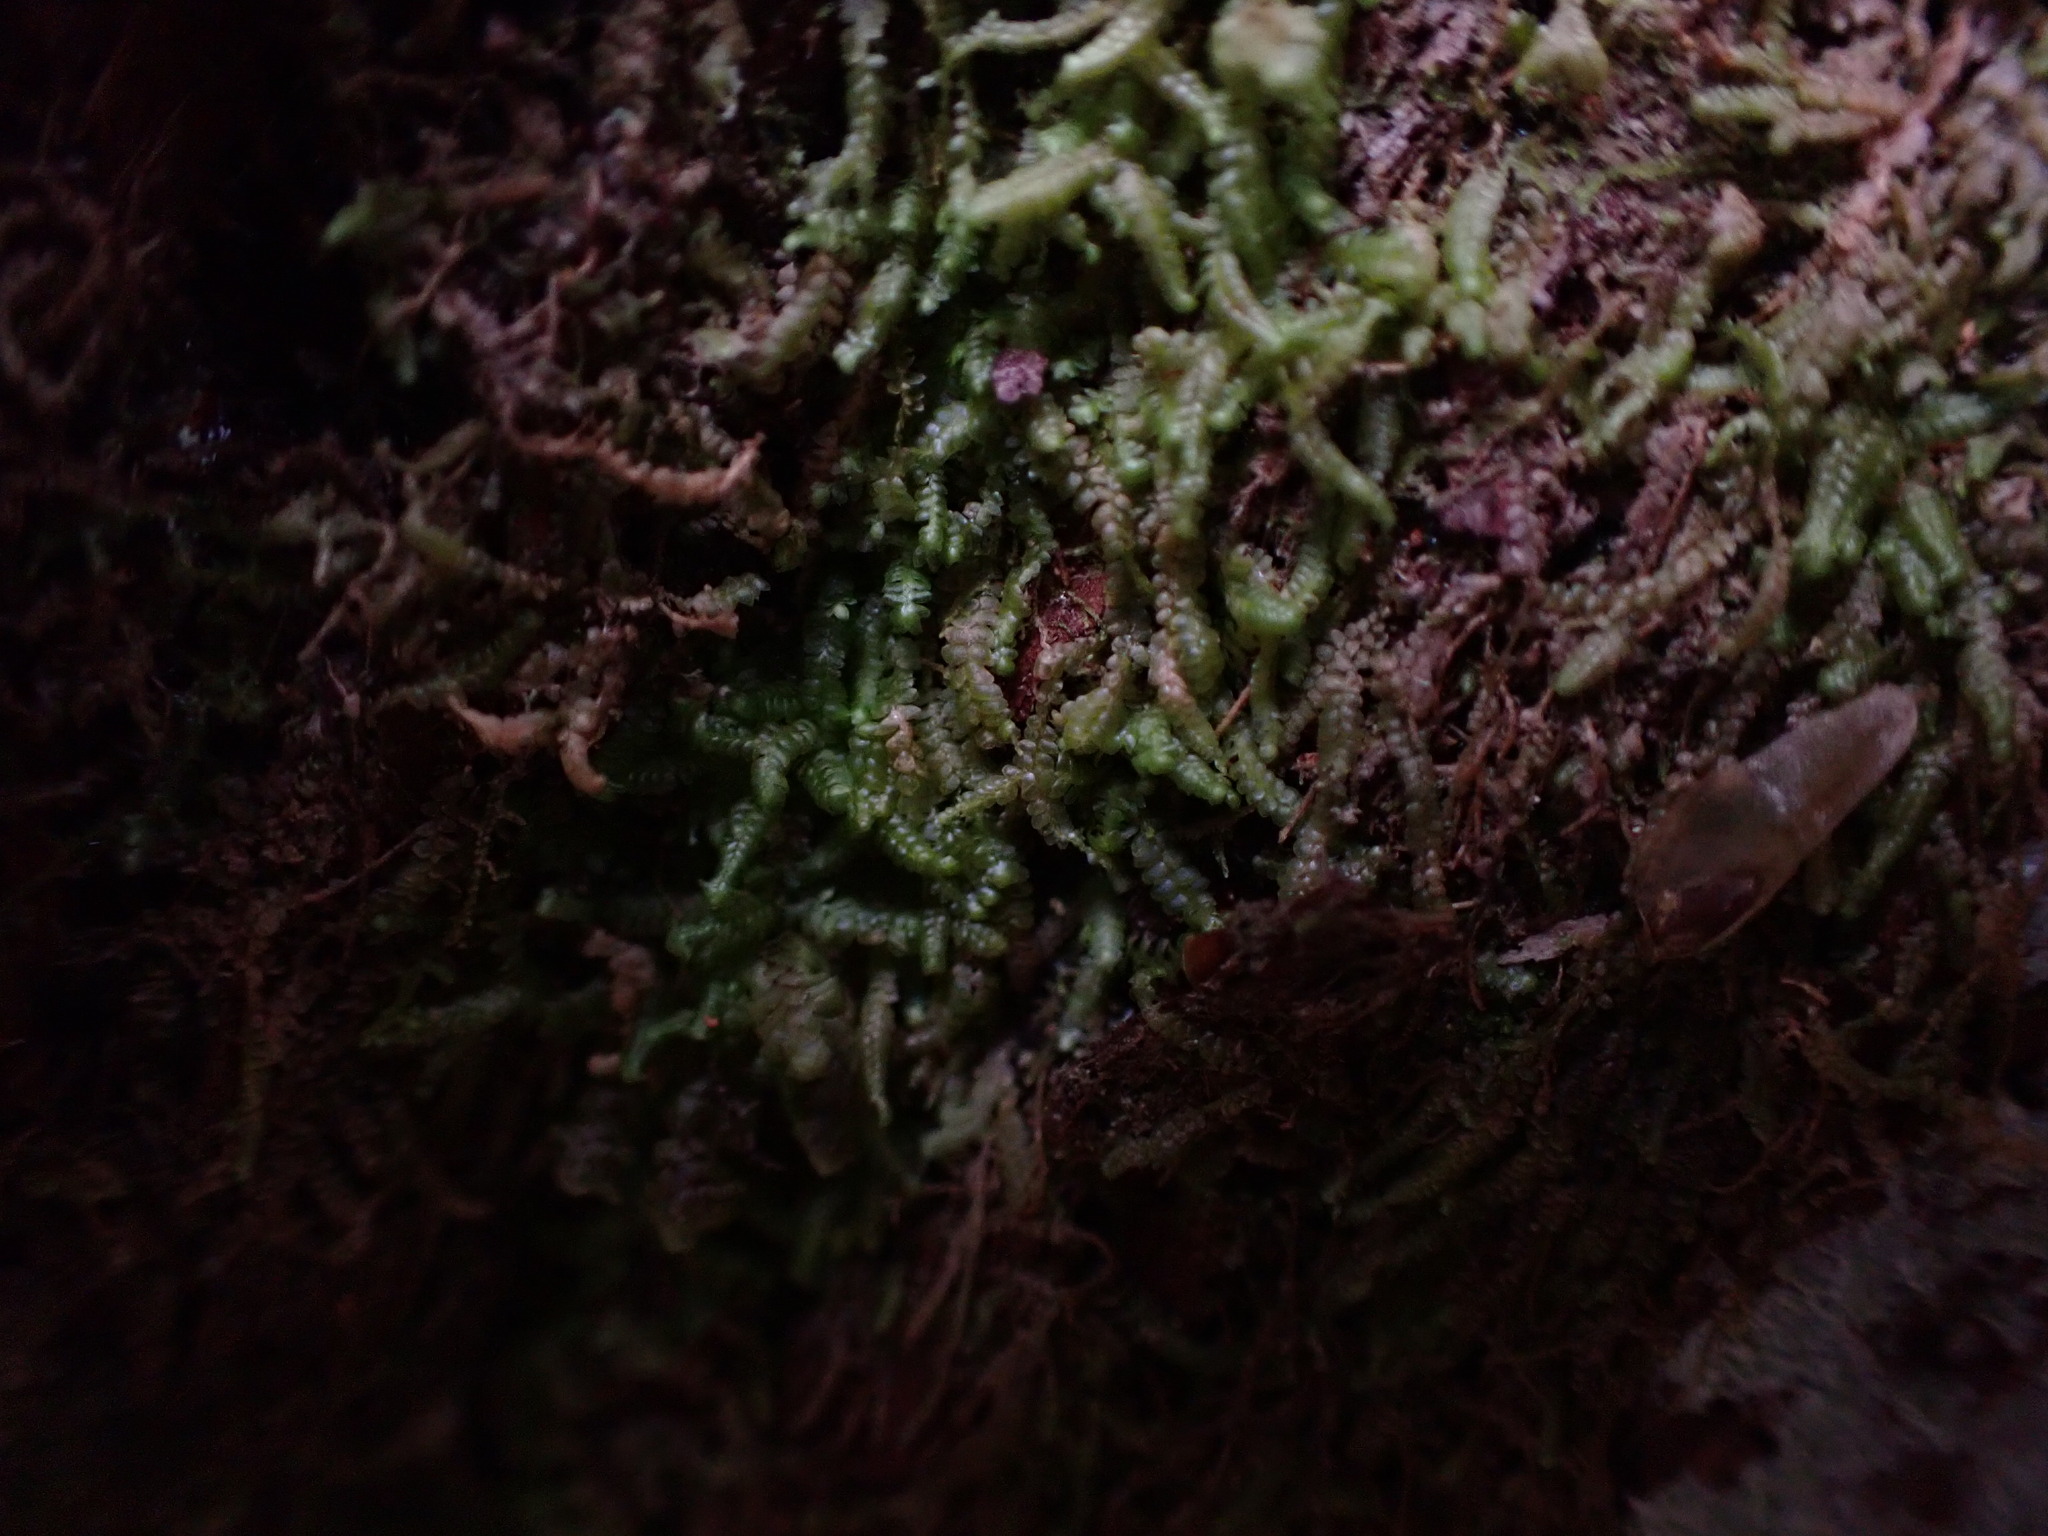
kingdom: Plantae
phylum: Marchantiophyta
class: Jungermanniopsida
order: Jungermanniales
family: Lepidoziaceae
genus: Bazzania
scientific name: Bazzania denudata
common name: Naked whipwort
